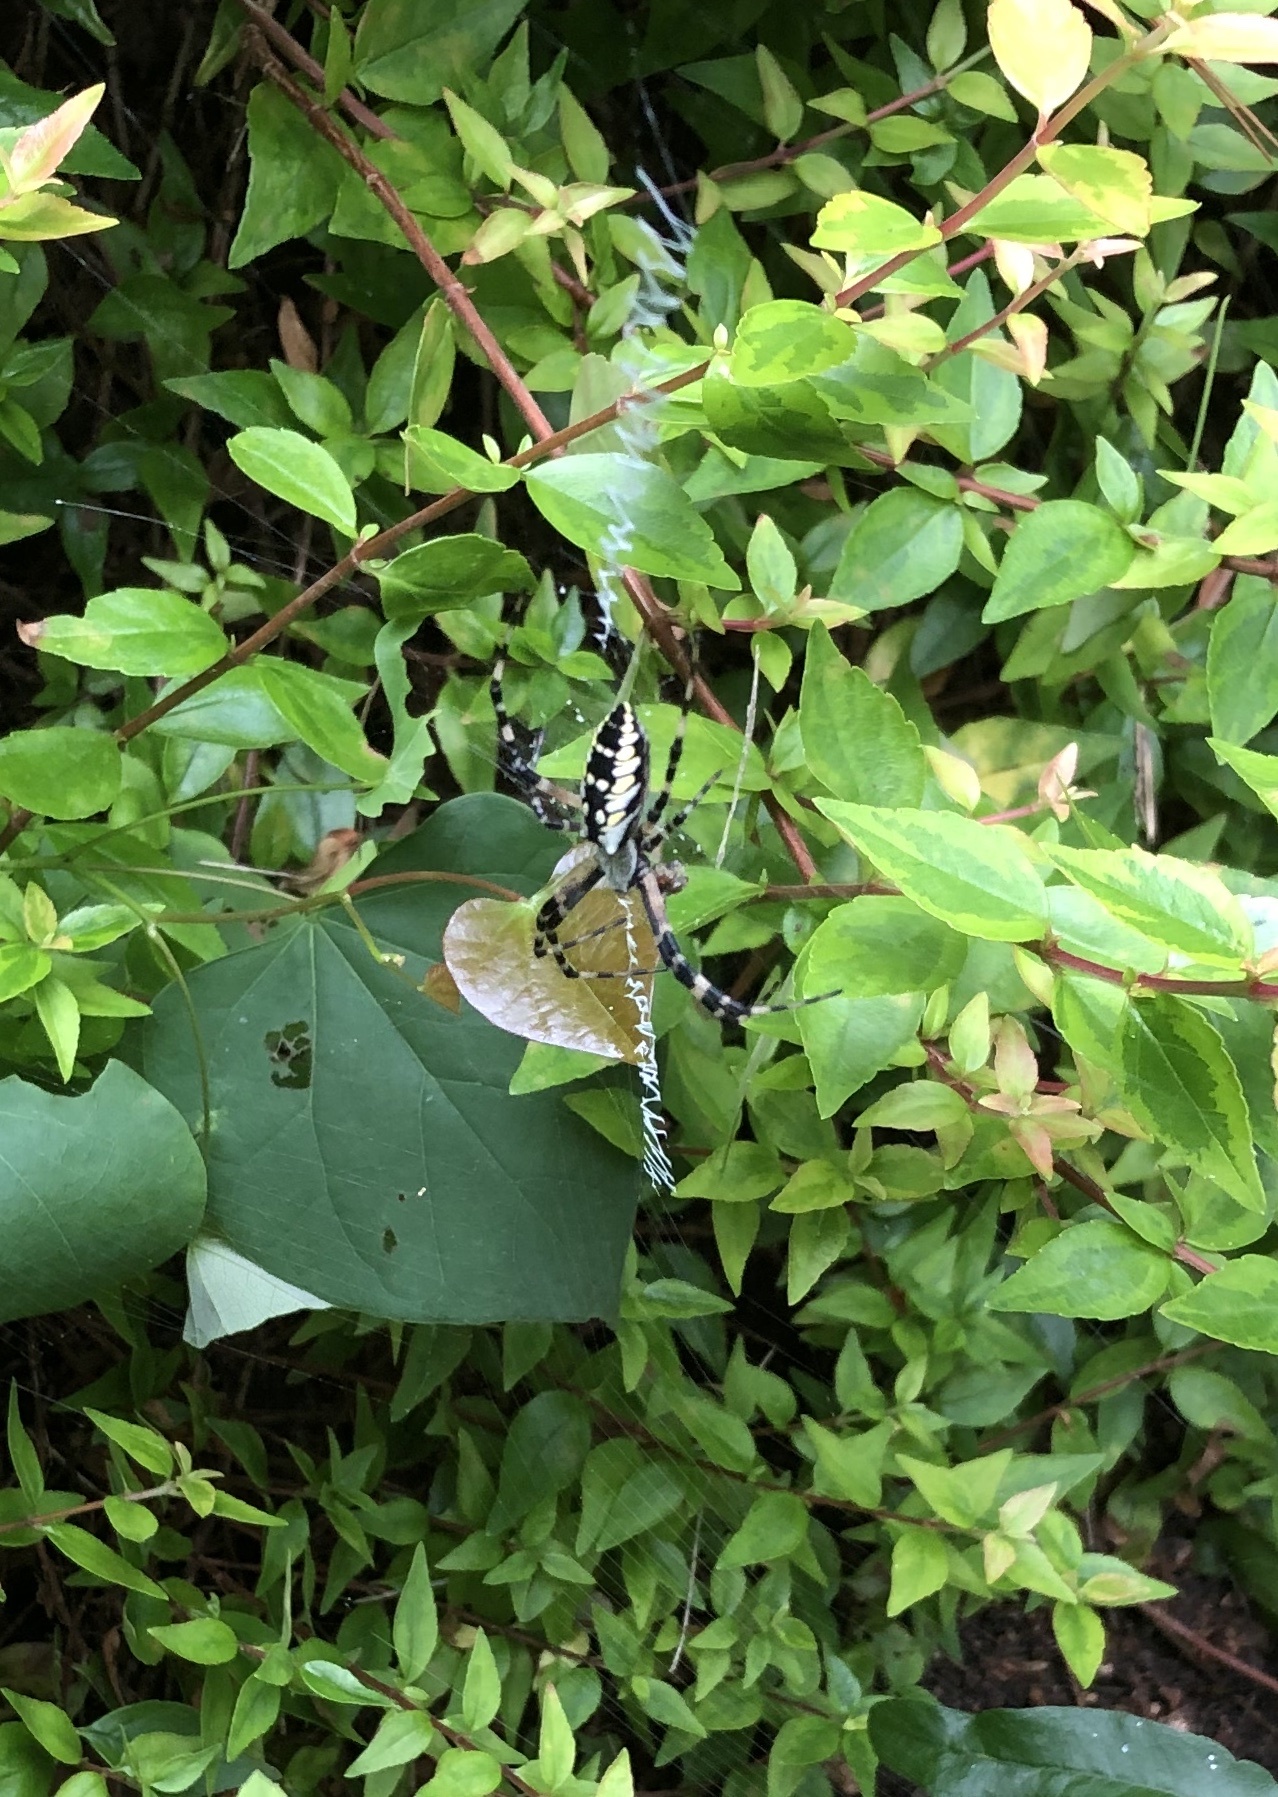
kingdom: Animalia
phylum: Arthropoda
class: Arachnida
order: Araneae
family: Araneidae
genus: Argiope
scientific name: Argiope aurantia
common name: Orb weavers
